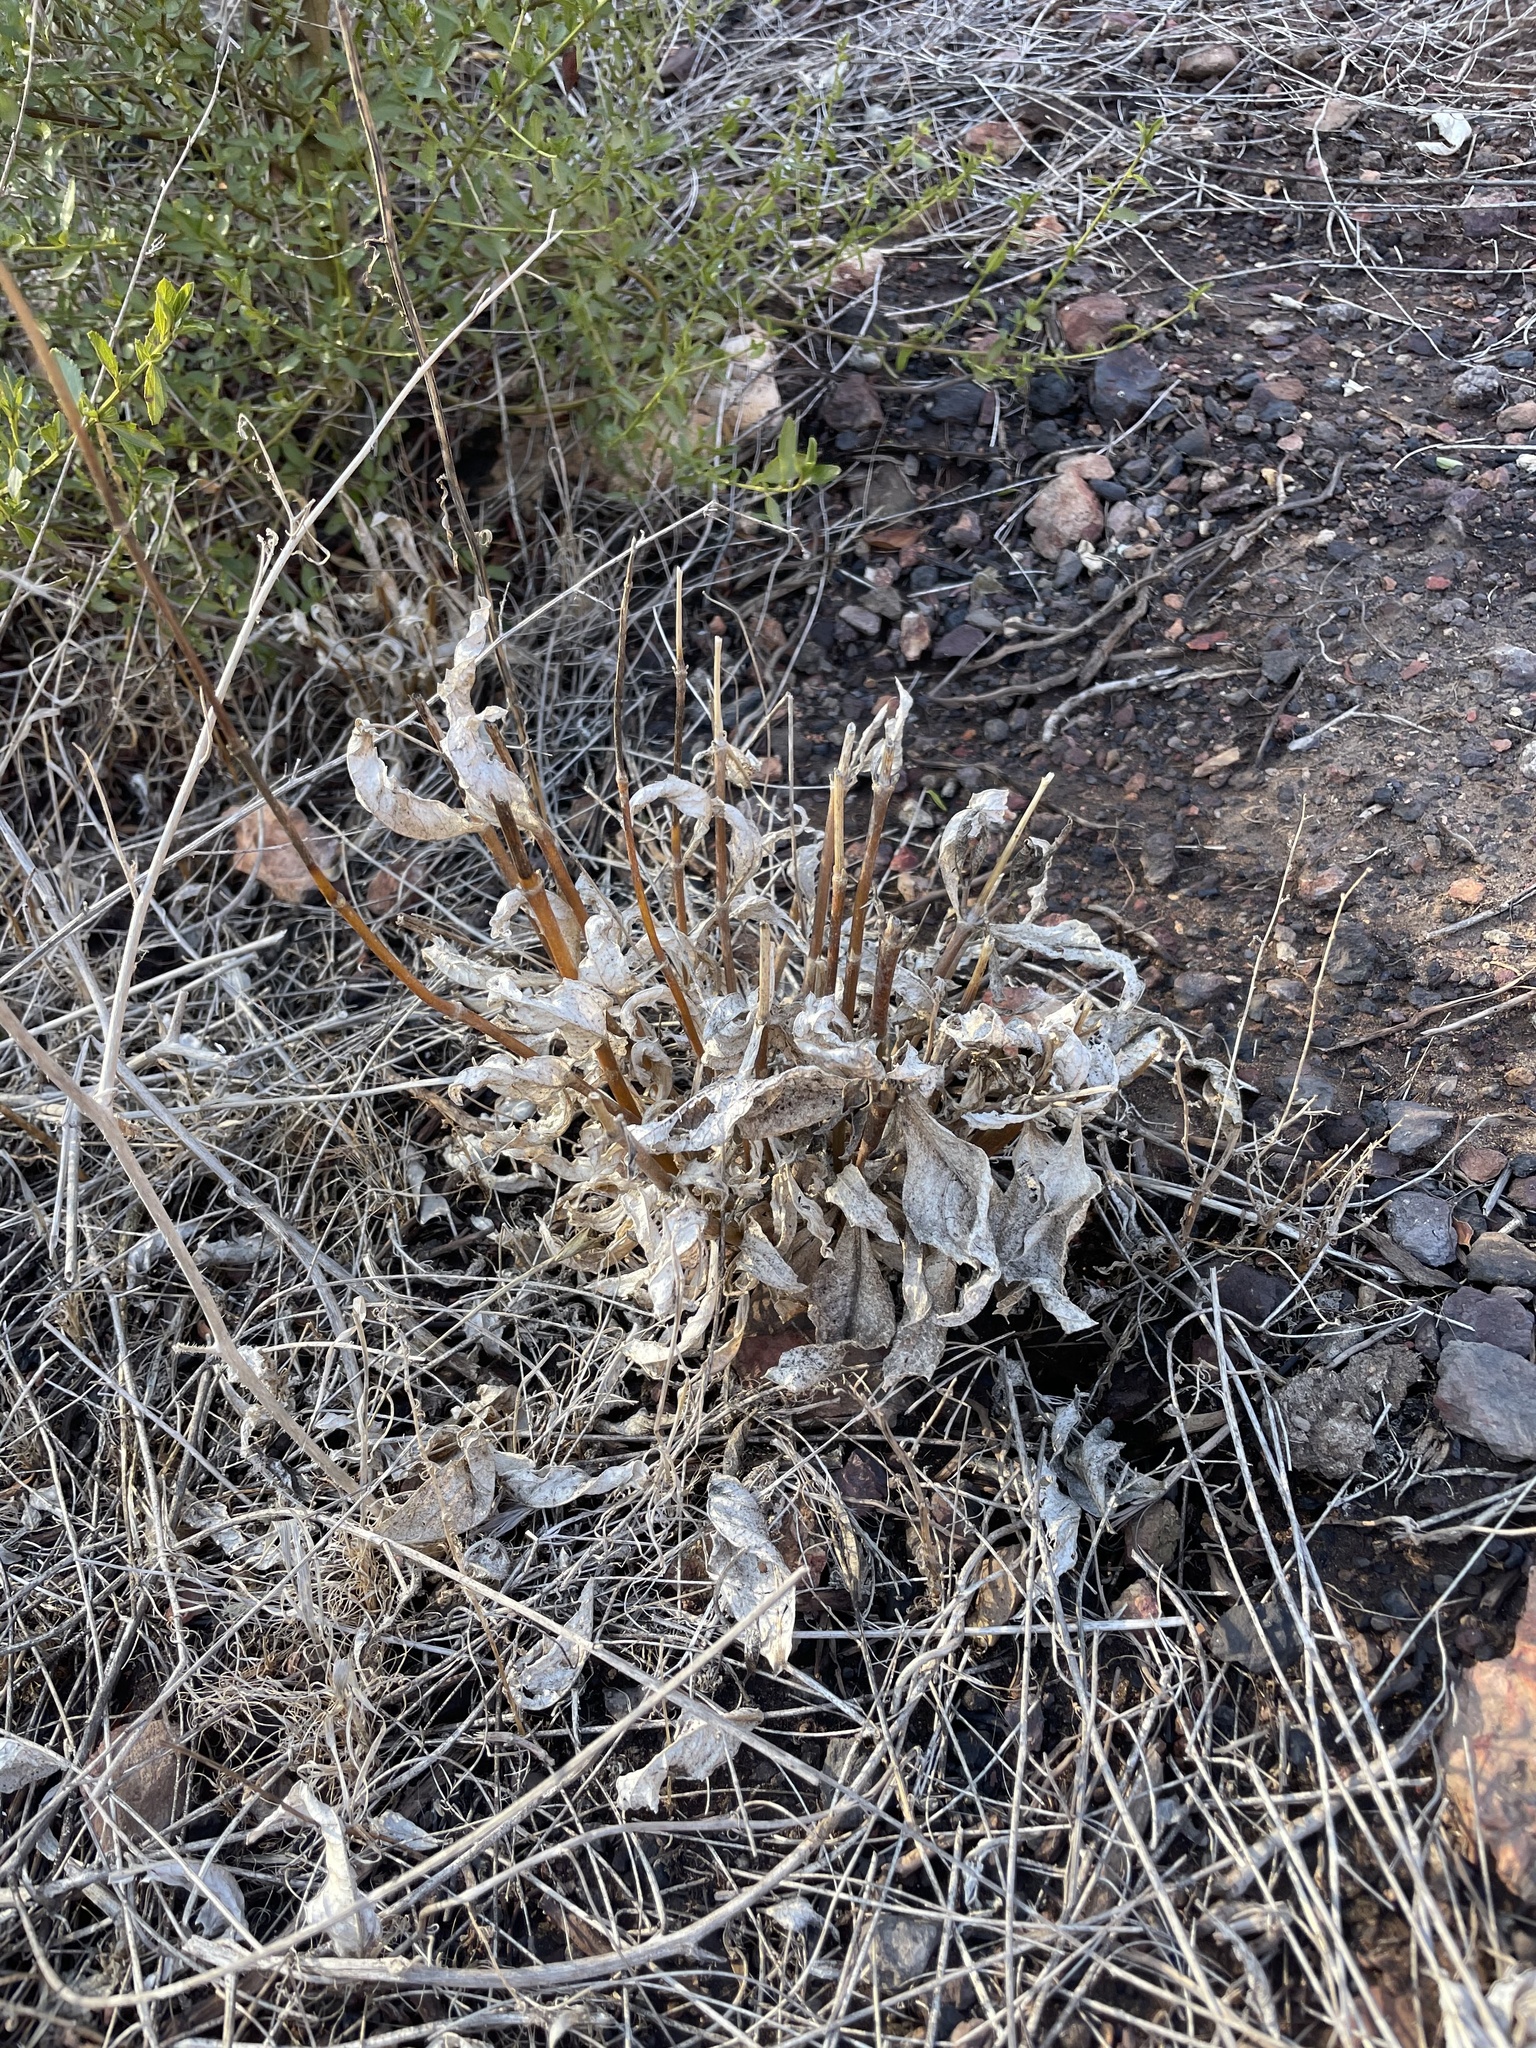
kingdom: Plantae
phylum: Tracheophyta
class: Magnoliopsida
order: Asterales
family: Asteraceae
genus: Verbesina
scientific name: Verbesina dissita
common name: Big-leaf crownbeard
